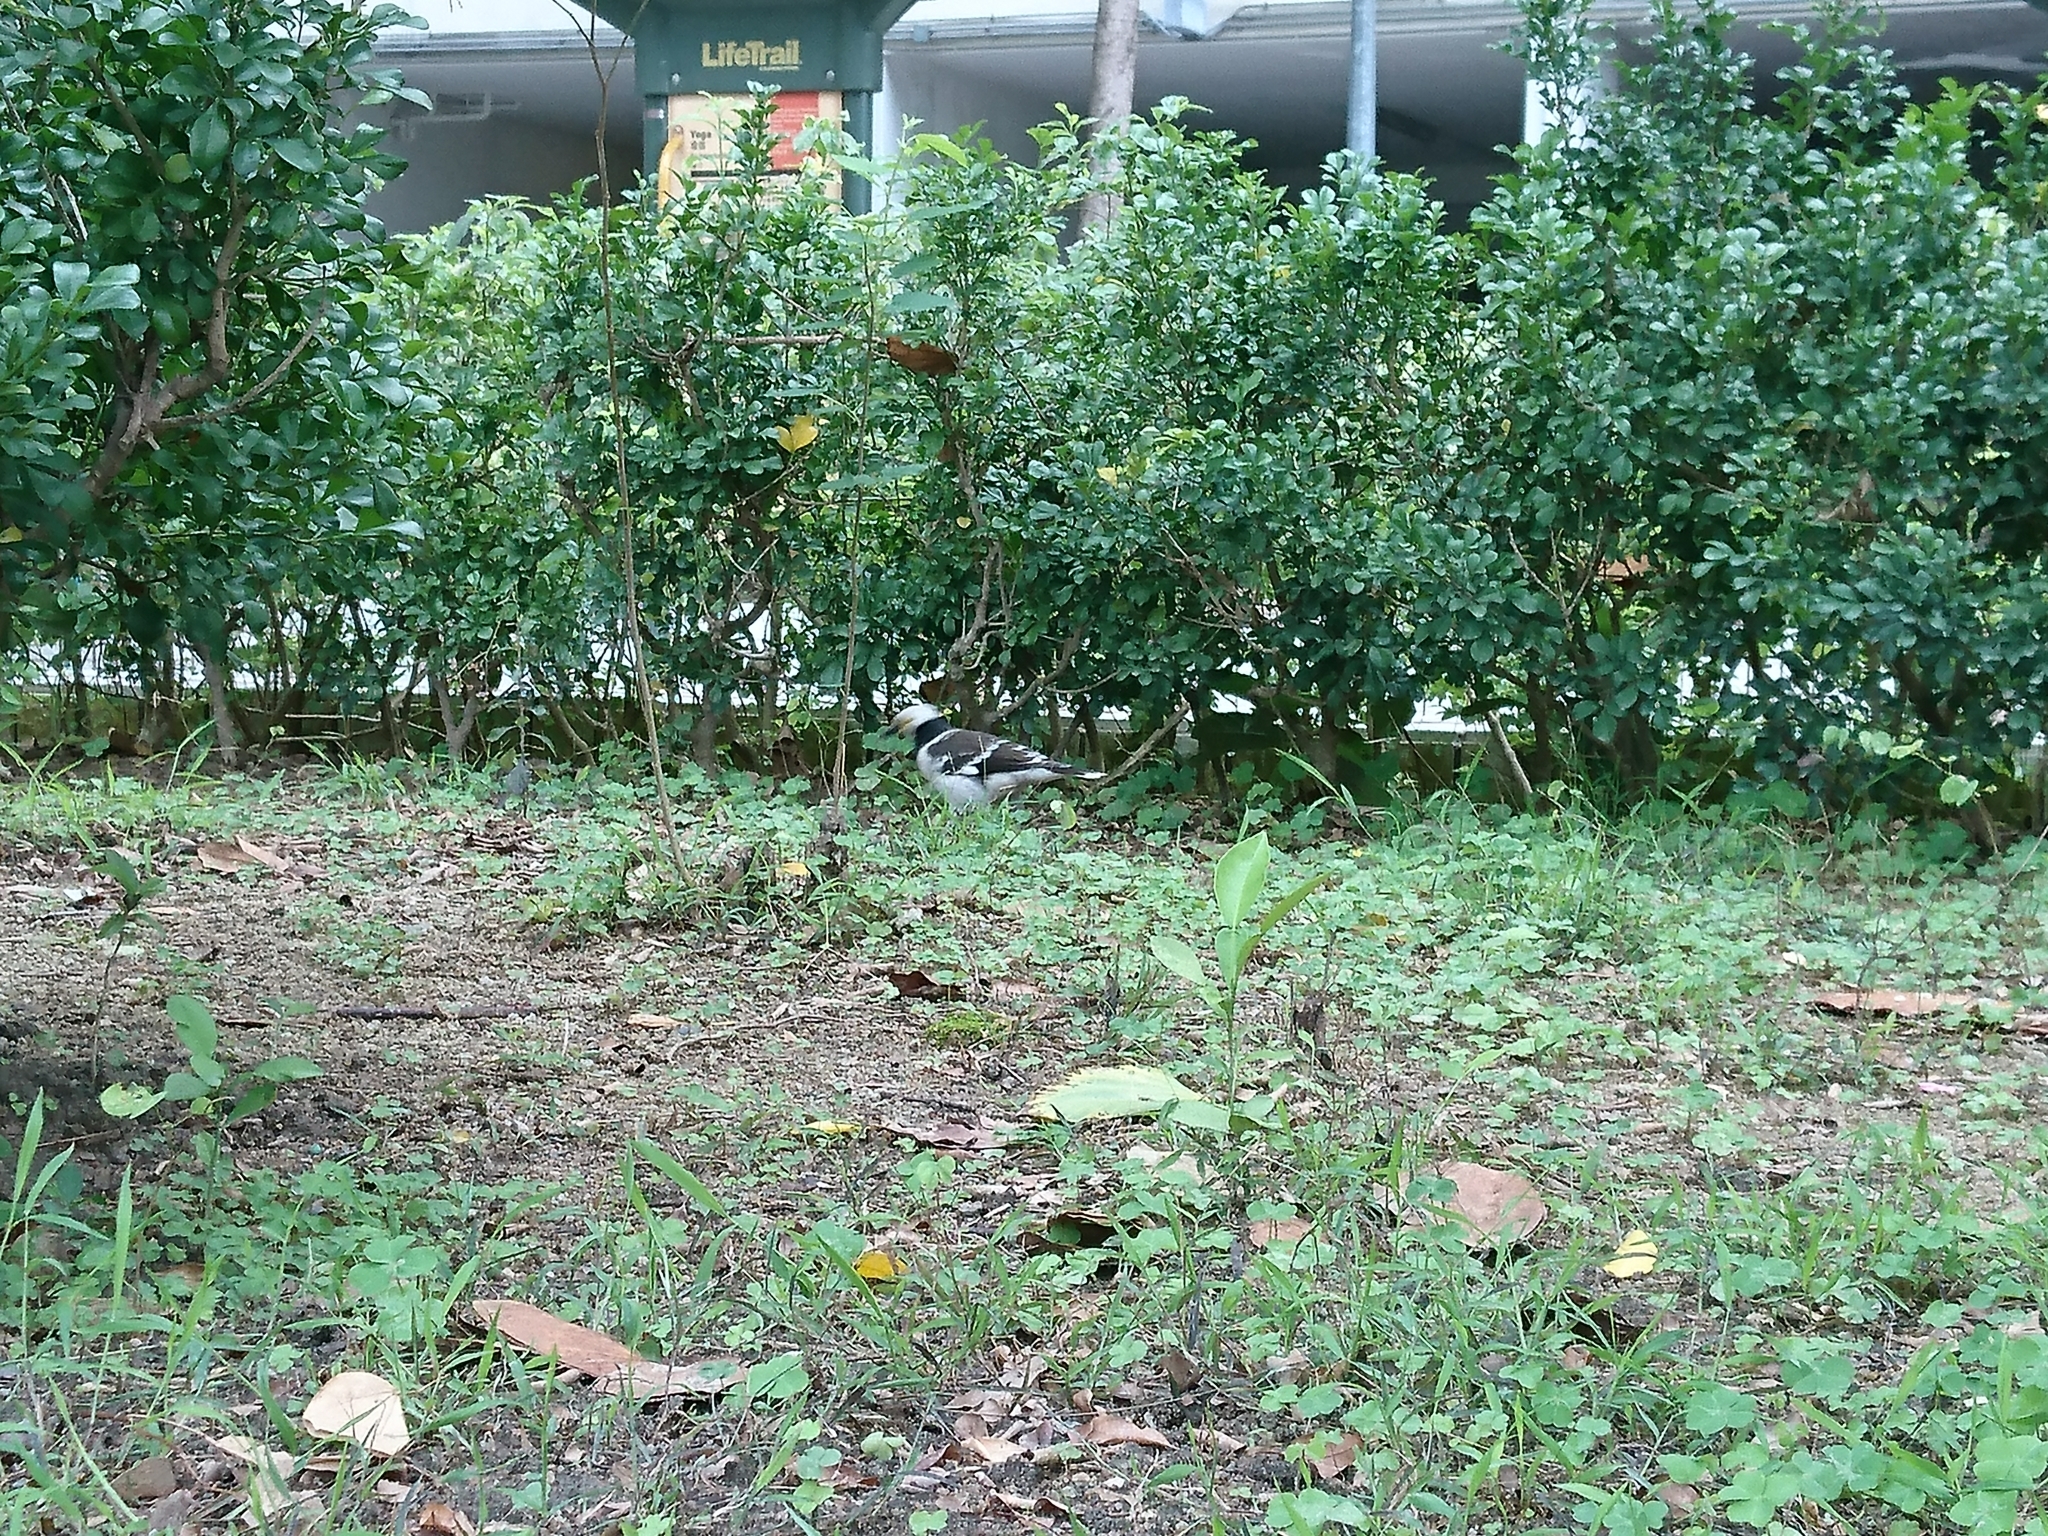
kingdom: Animalia
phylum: Chordata
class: Aves
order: Passeriformes
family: Sturnidae
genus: Gracupica
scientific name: Gracupica nigricollis
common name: Black-collared starling
